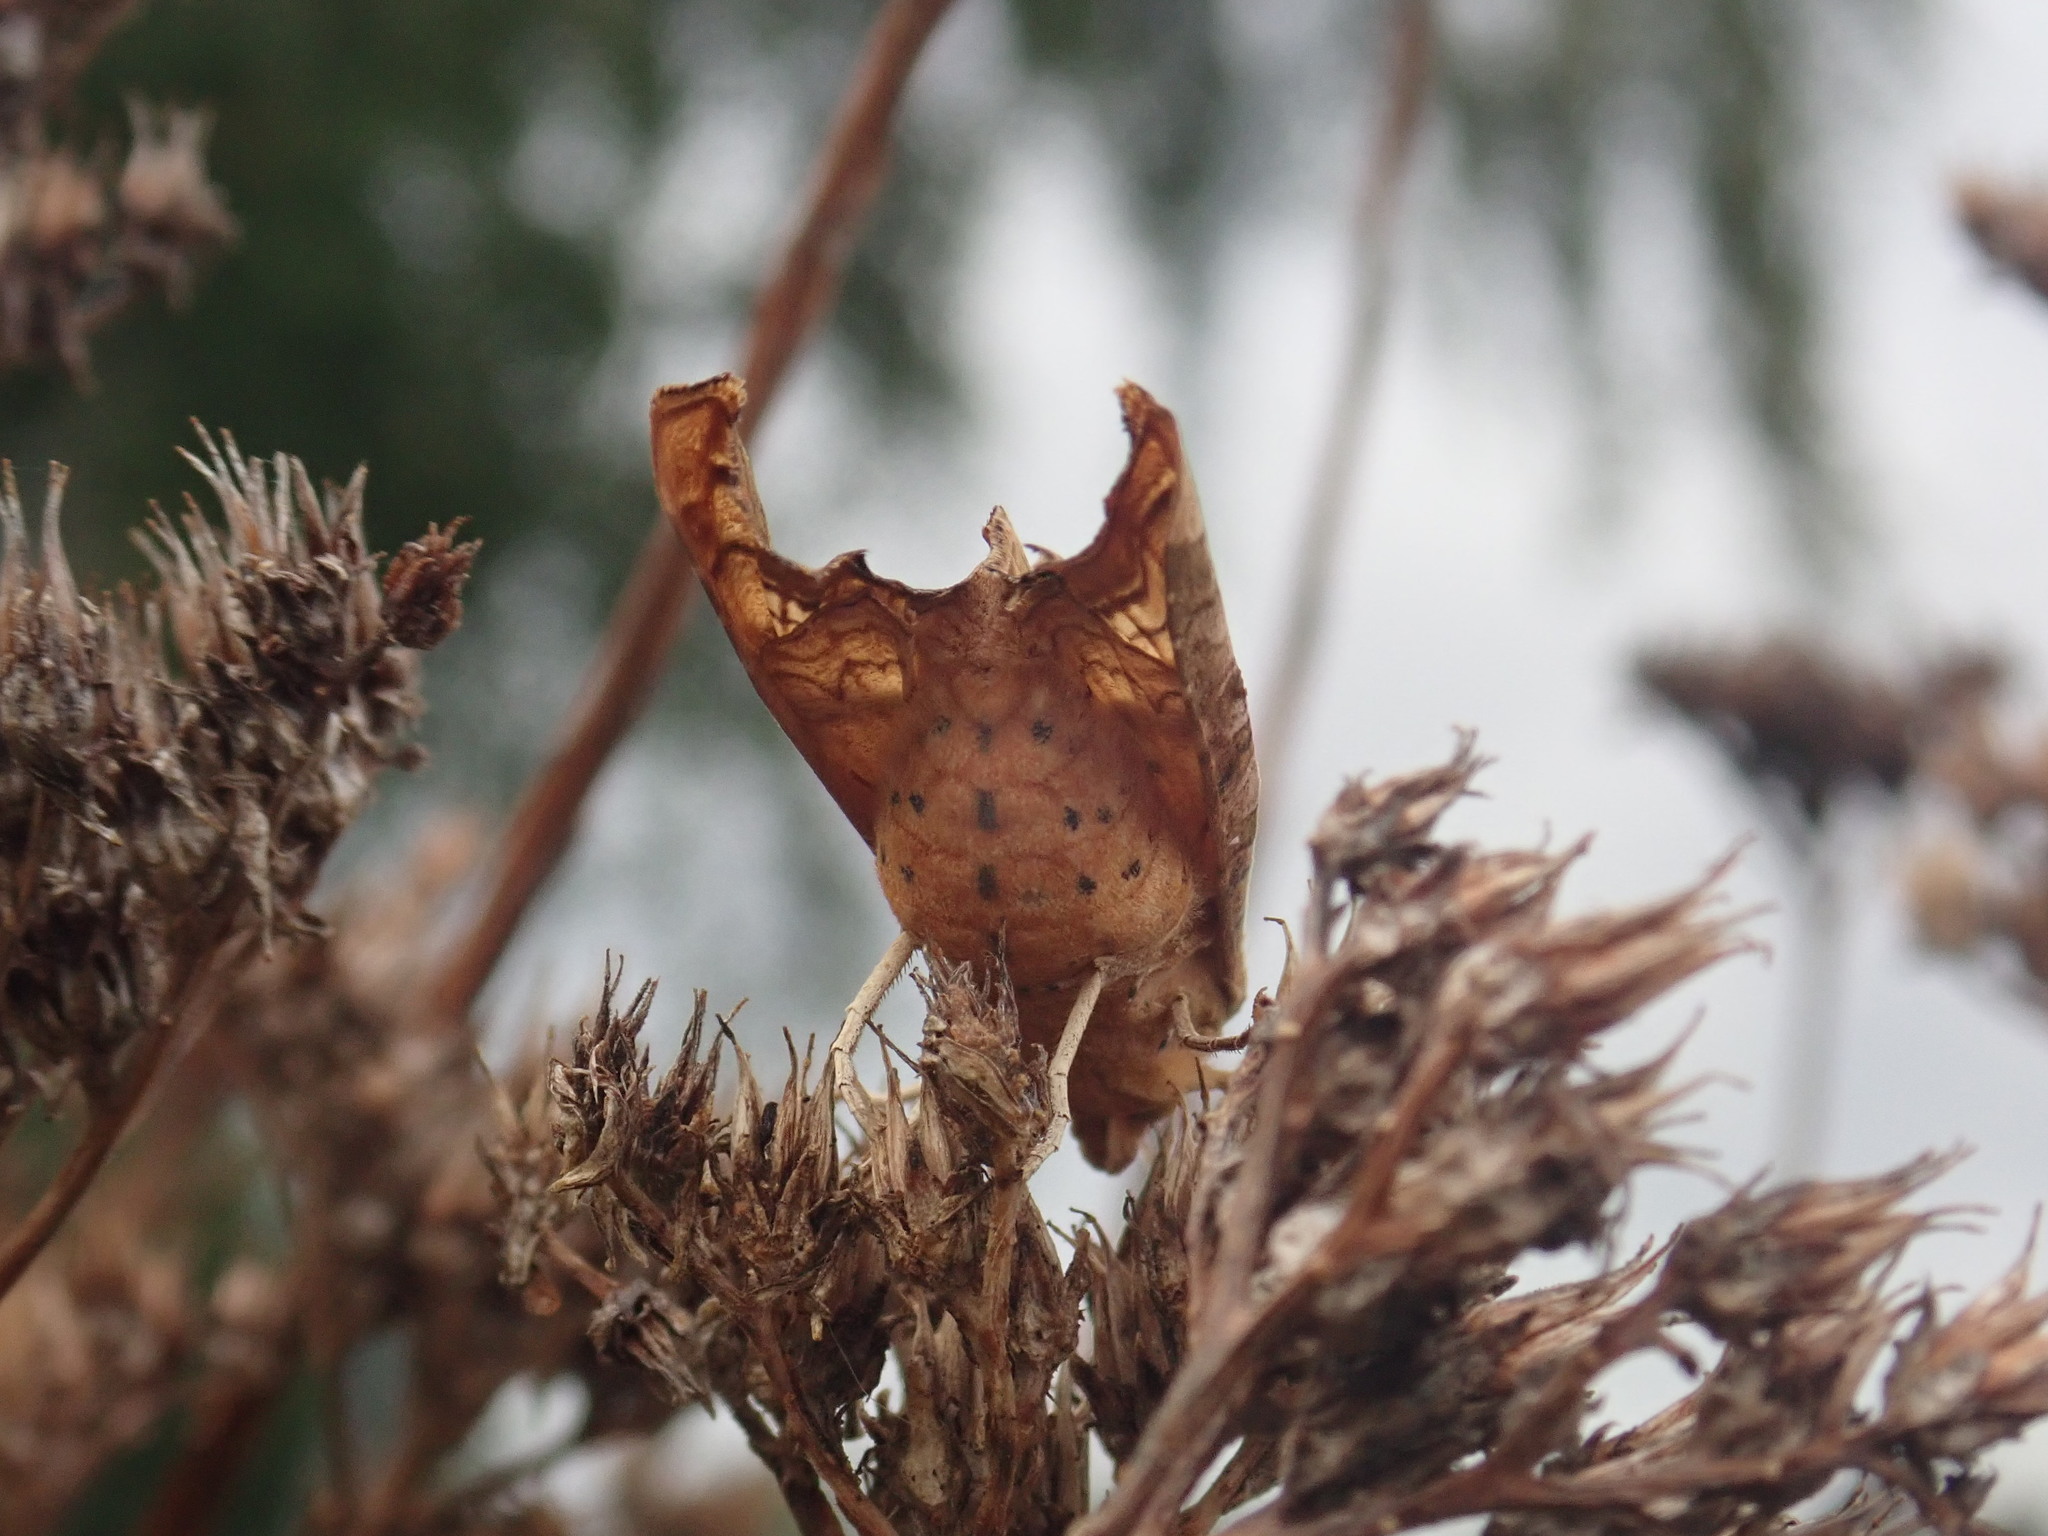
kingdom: Animalia
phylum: Arthropoda
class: Insecta
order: Lepidoptera
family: Noctuidae
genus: Phlogophora
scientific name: Phlogophora meticulosa
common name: Angle shades
